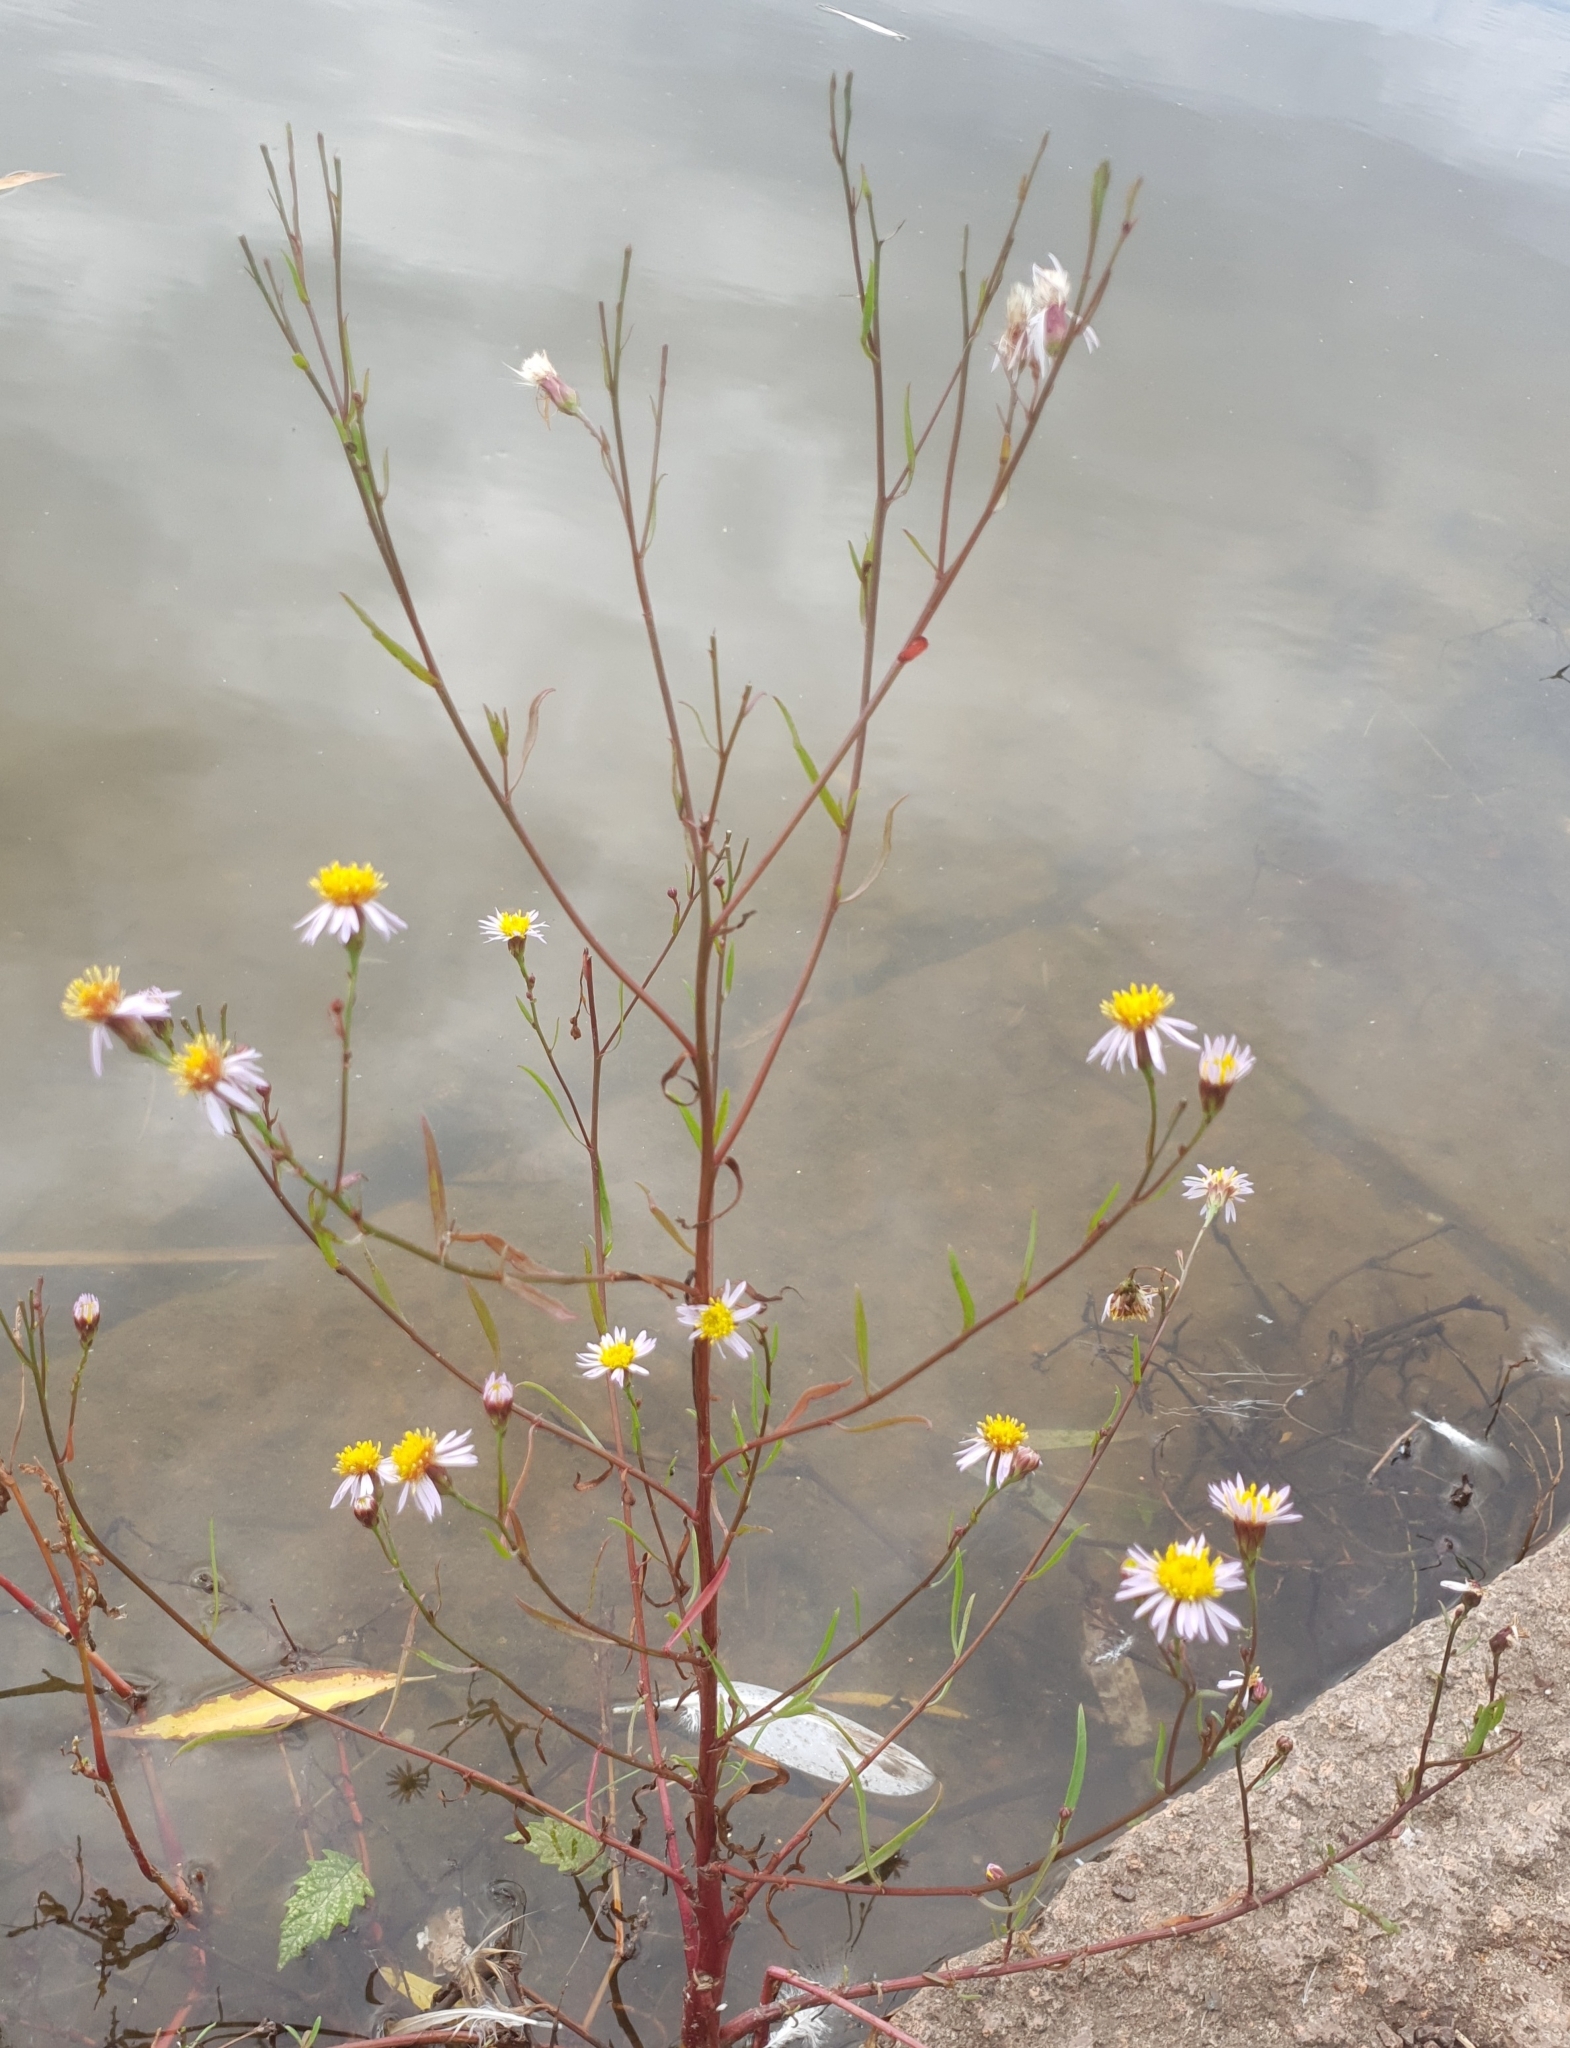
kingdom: Plantae
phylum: Tracheophyta
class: Magnoliopsida
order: Asterales
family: Asteraceae
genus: Tripolium
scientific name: Tripolium pannonicum
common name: Sea aster
